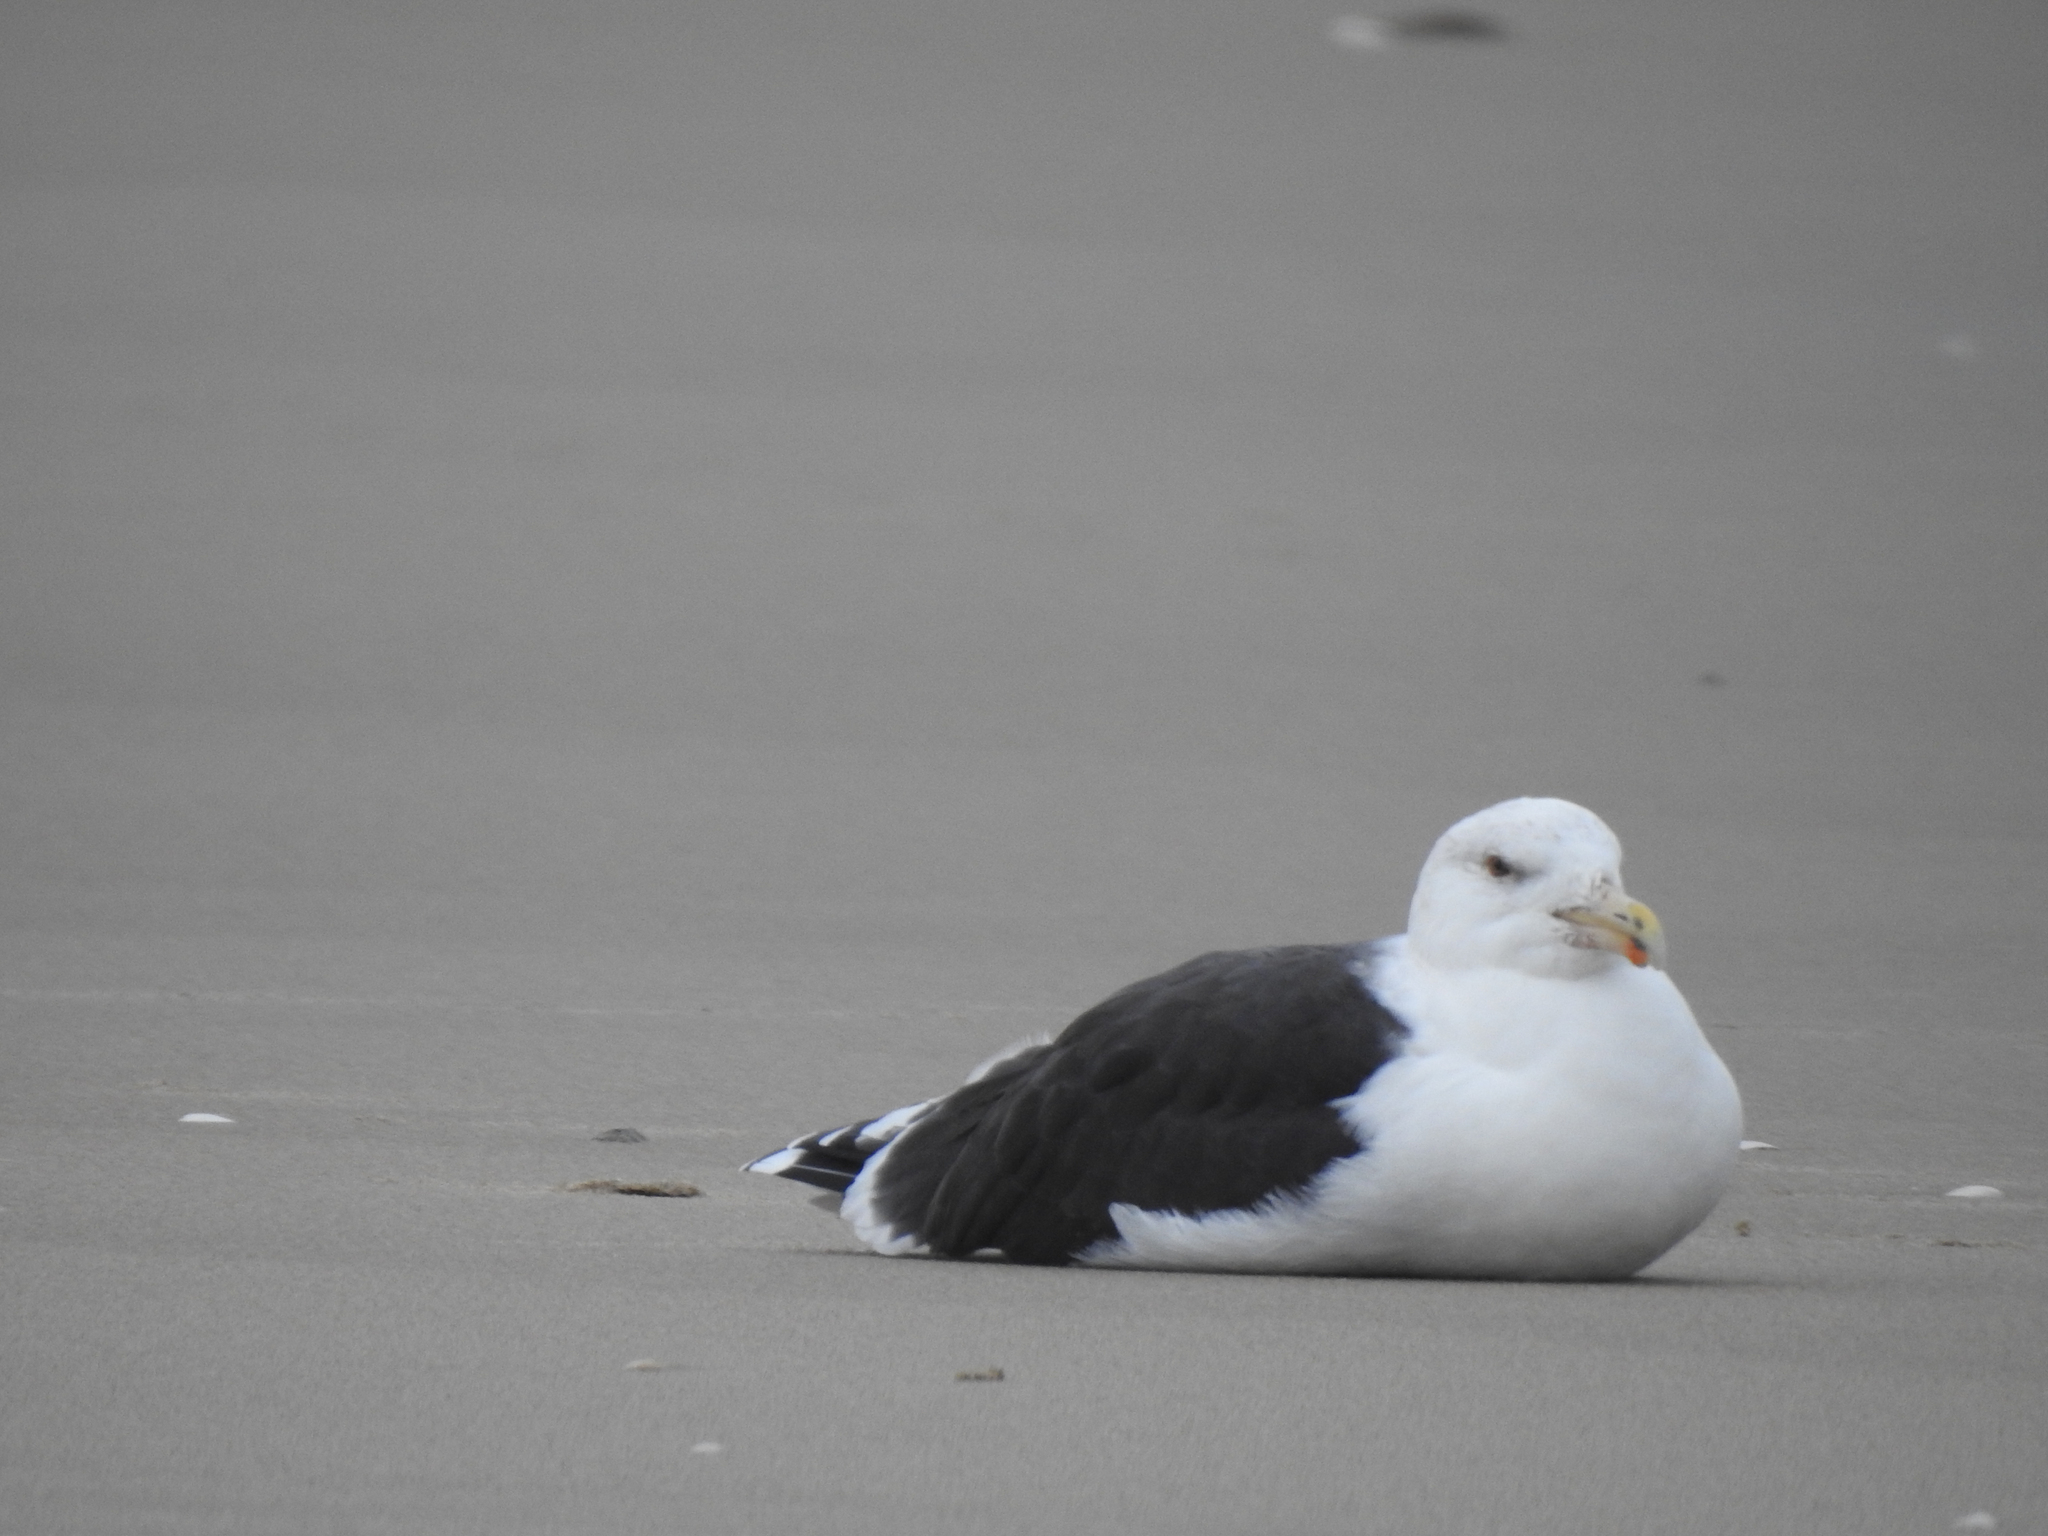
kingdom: Animalia
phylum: Chordata
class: Aves
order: Charadriiformes
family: Laridae
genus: Larus
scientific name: Larus marinus
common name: Great black-backed gull
